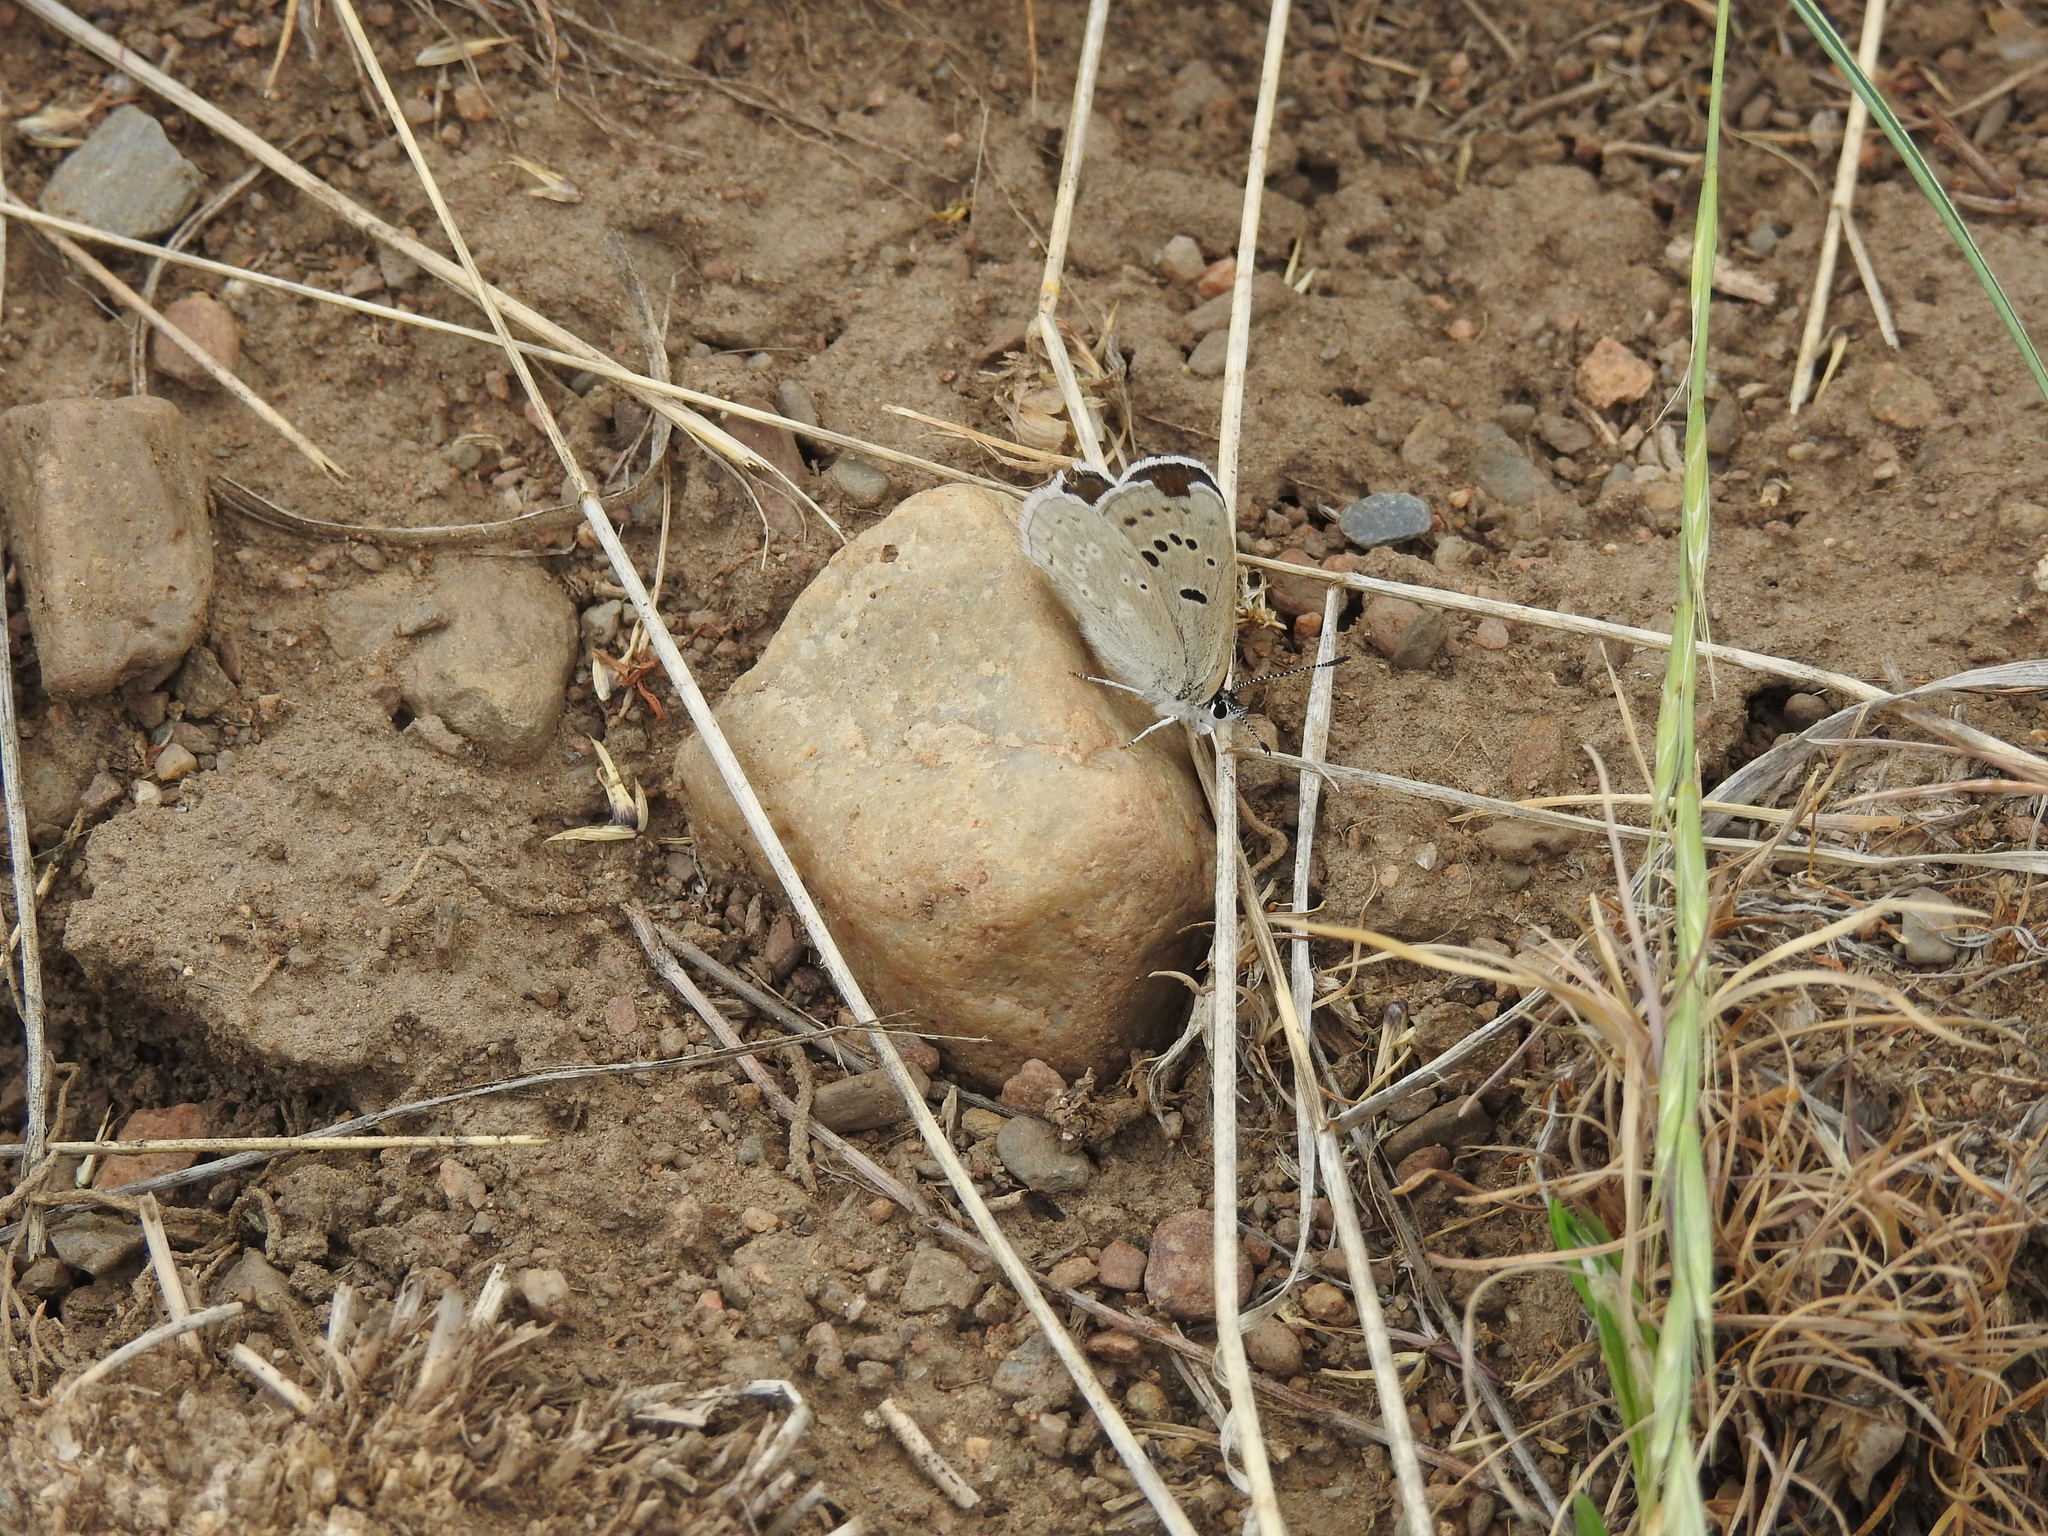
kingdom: Animalia
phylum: Arthropoda
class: Insecta
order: Lepidoptera
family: Lycaenidae
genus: Icaricia
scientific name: Icaricia icarioides
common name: Boisduval's blue
